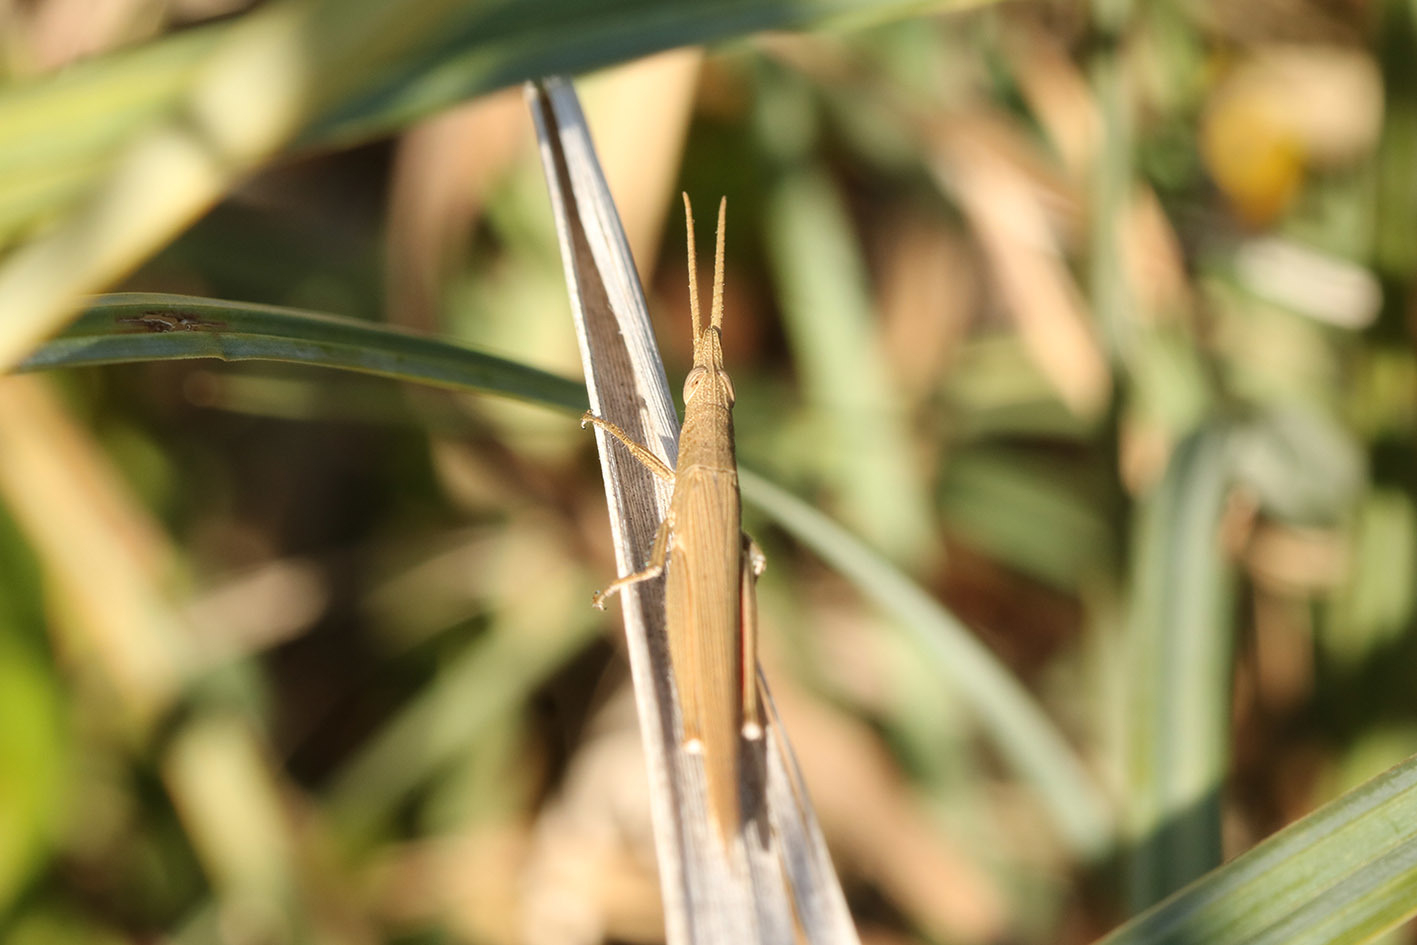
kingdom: Animalia
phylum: Arthropoda
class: Insecta
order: Orthoptera
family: Acrididae
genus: Haroldgrantia
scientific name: Haroldgrantia lignosa
